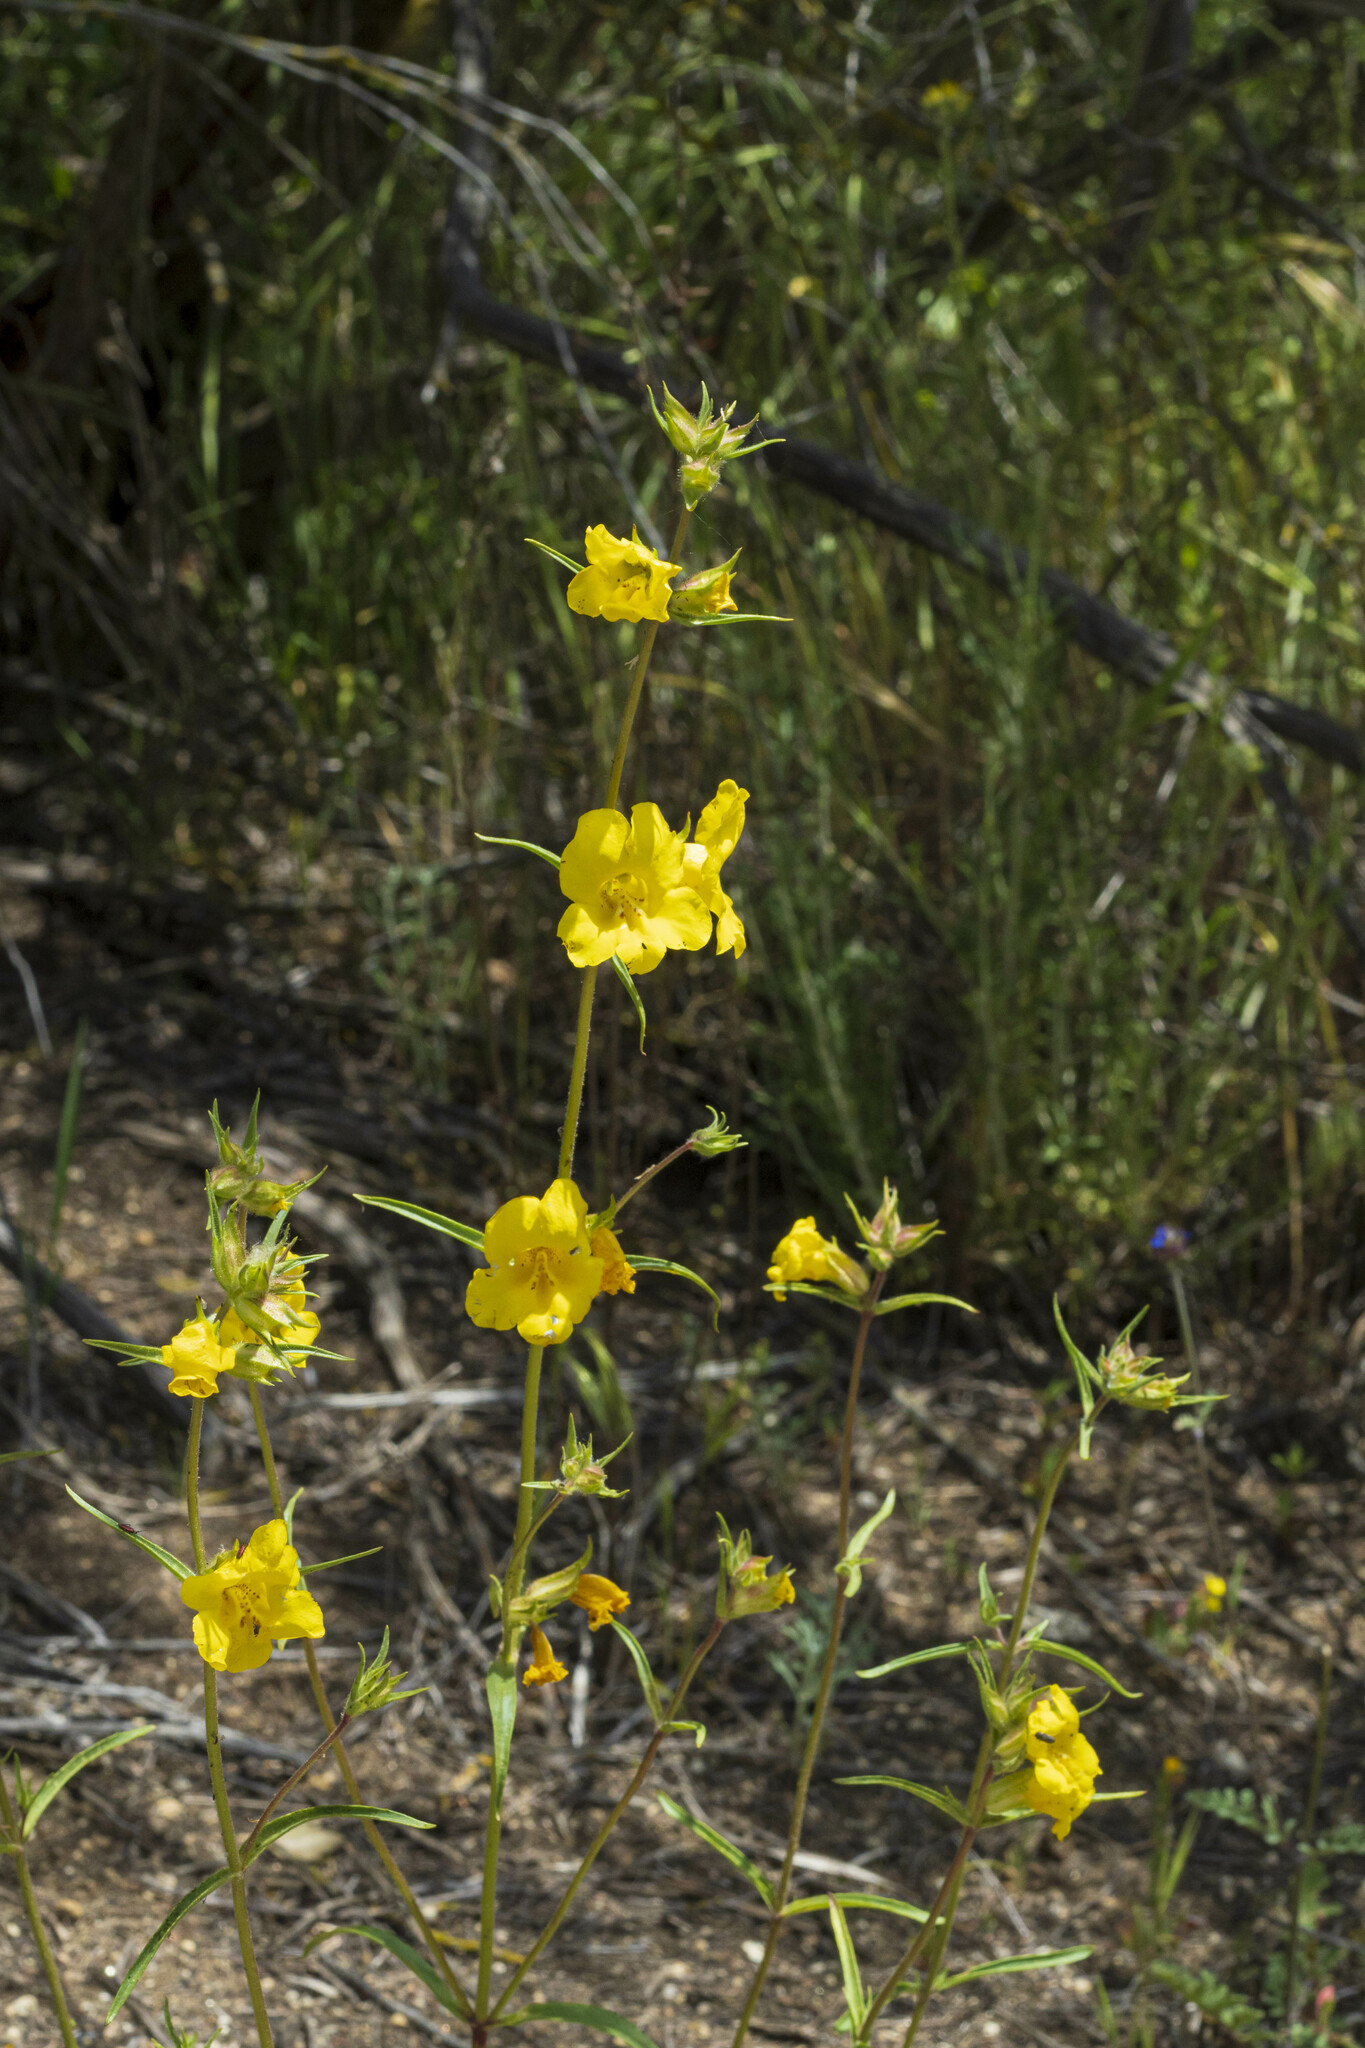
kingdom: Plantae
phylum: Tracheophyta
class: Magnoliopsida
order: Lamiales
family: Phrymaceae
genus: Diplacus
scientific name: Diplacus brevipes
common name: Wide-throat yellow monkey-flower
